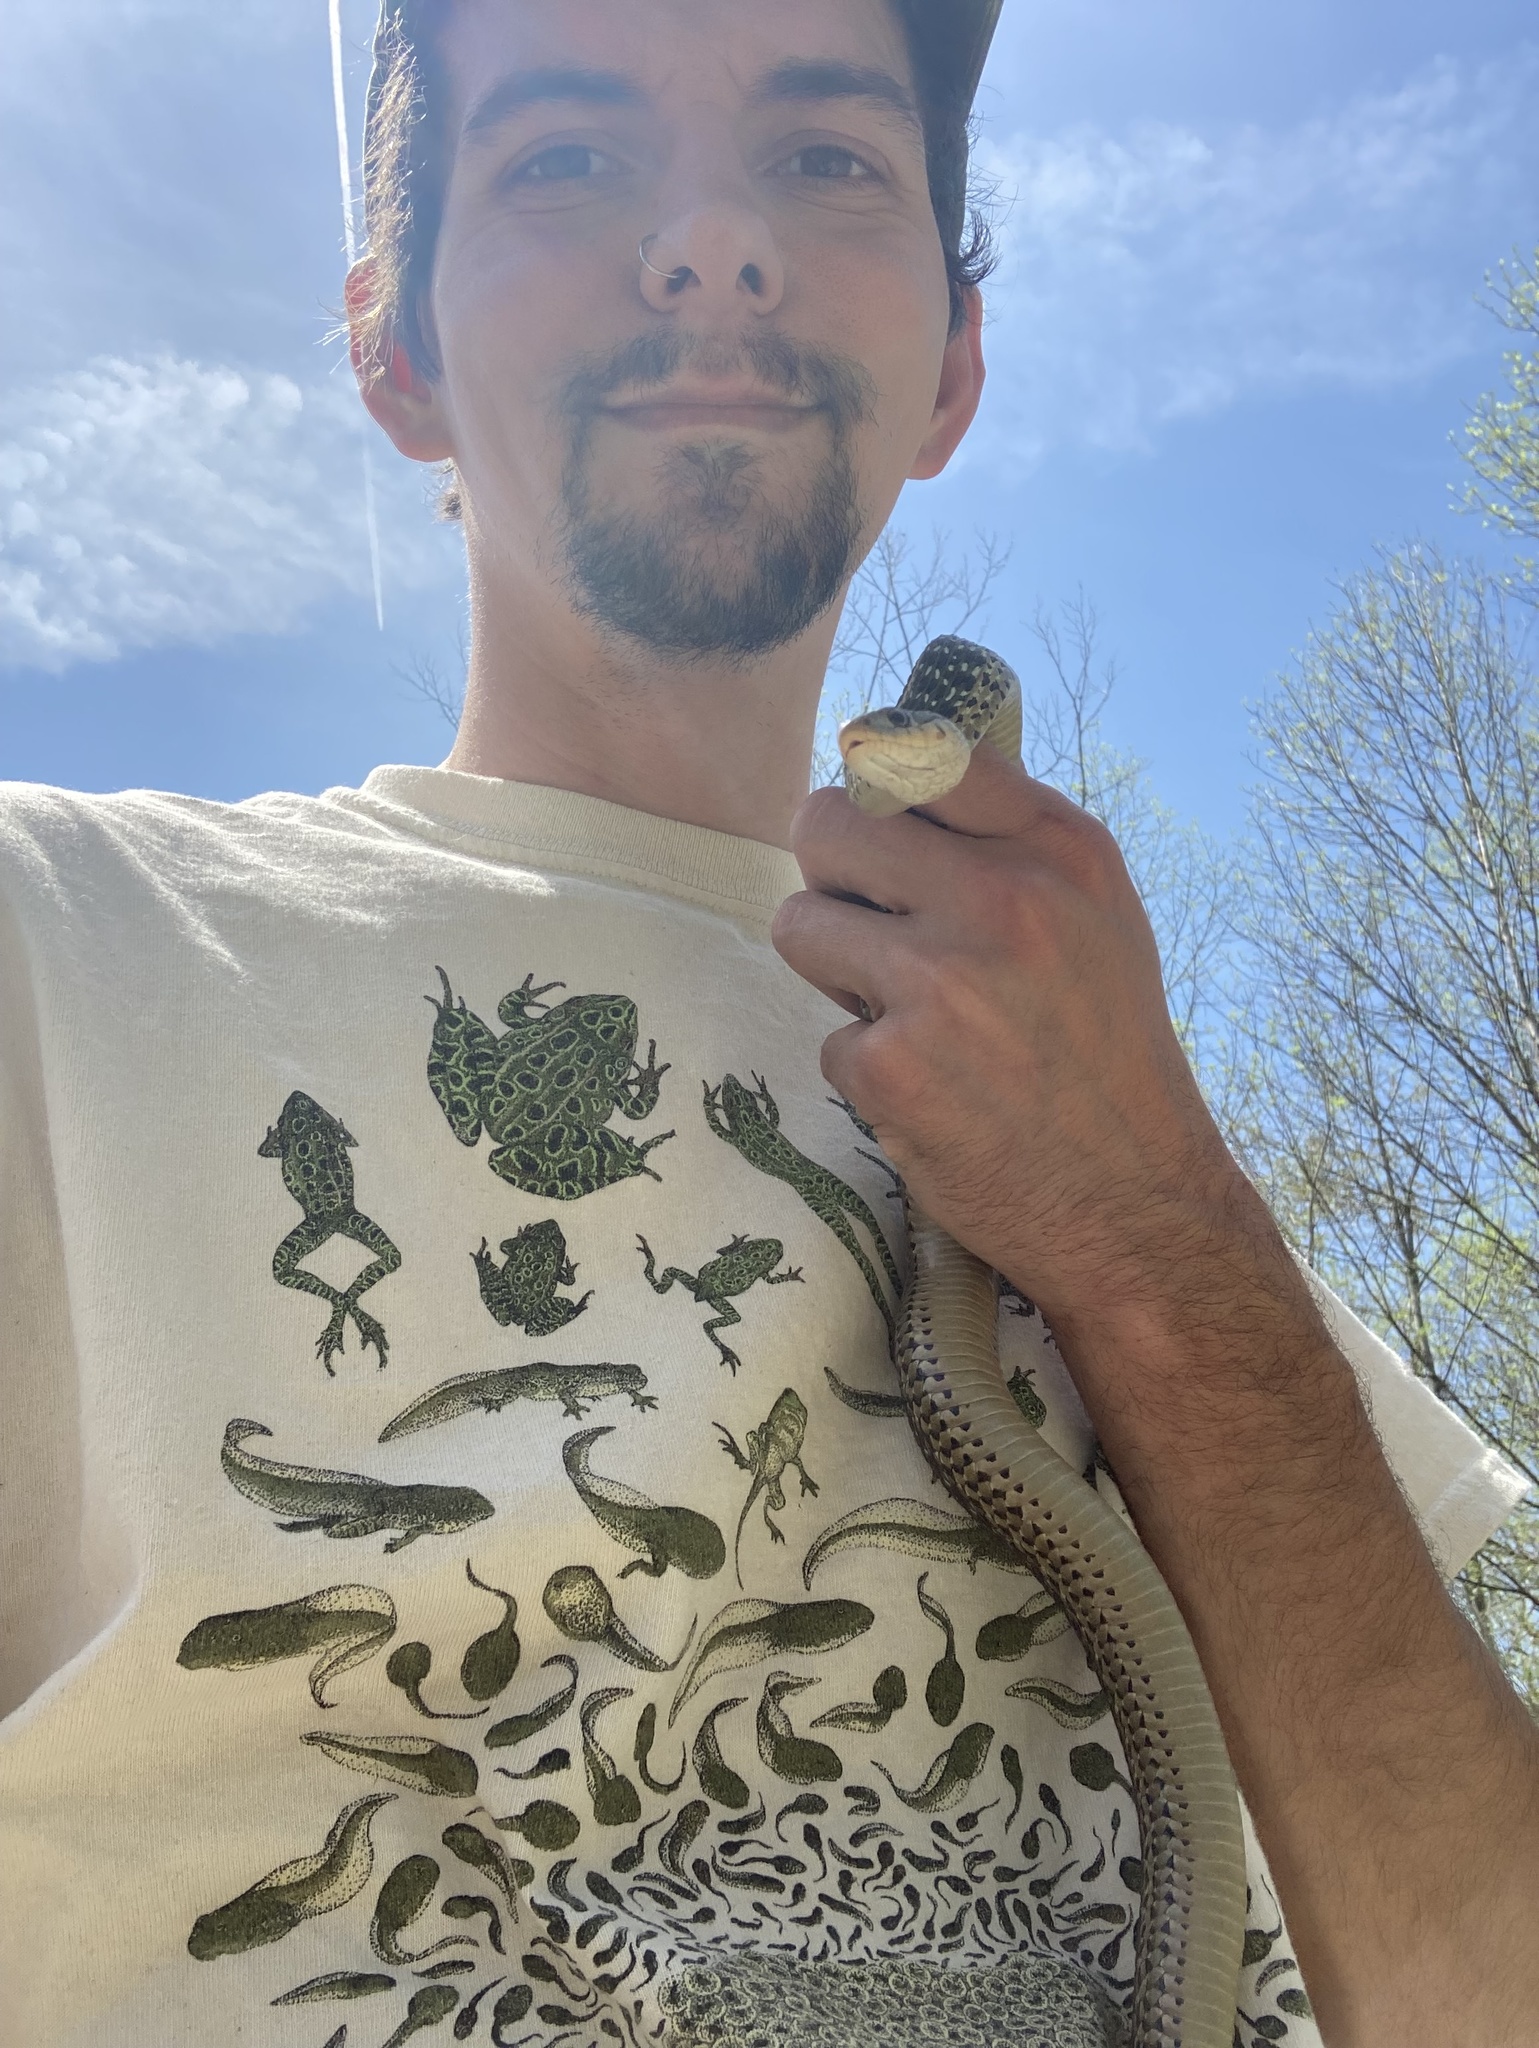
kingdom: Animalia
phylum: Chordata
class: Squamata
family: Colubridae
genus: Thamnophis
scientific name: Thamnophis sirtalis
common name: Common garter snake
